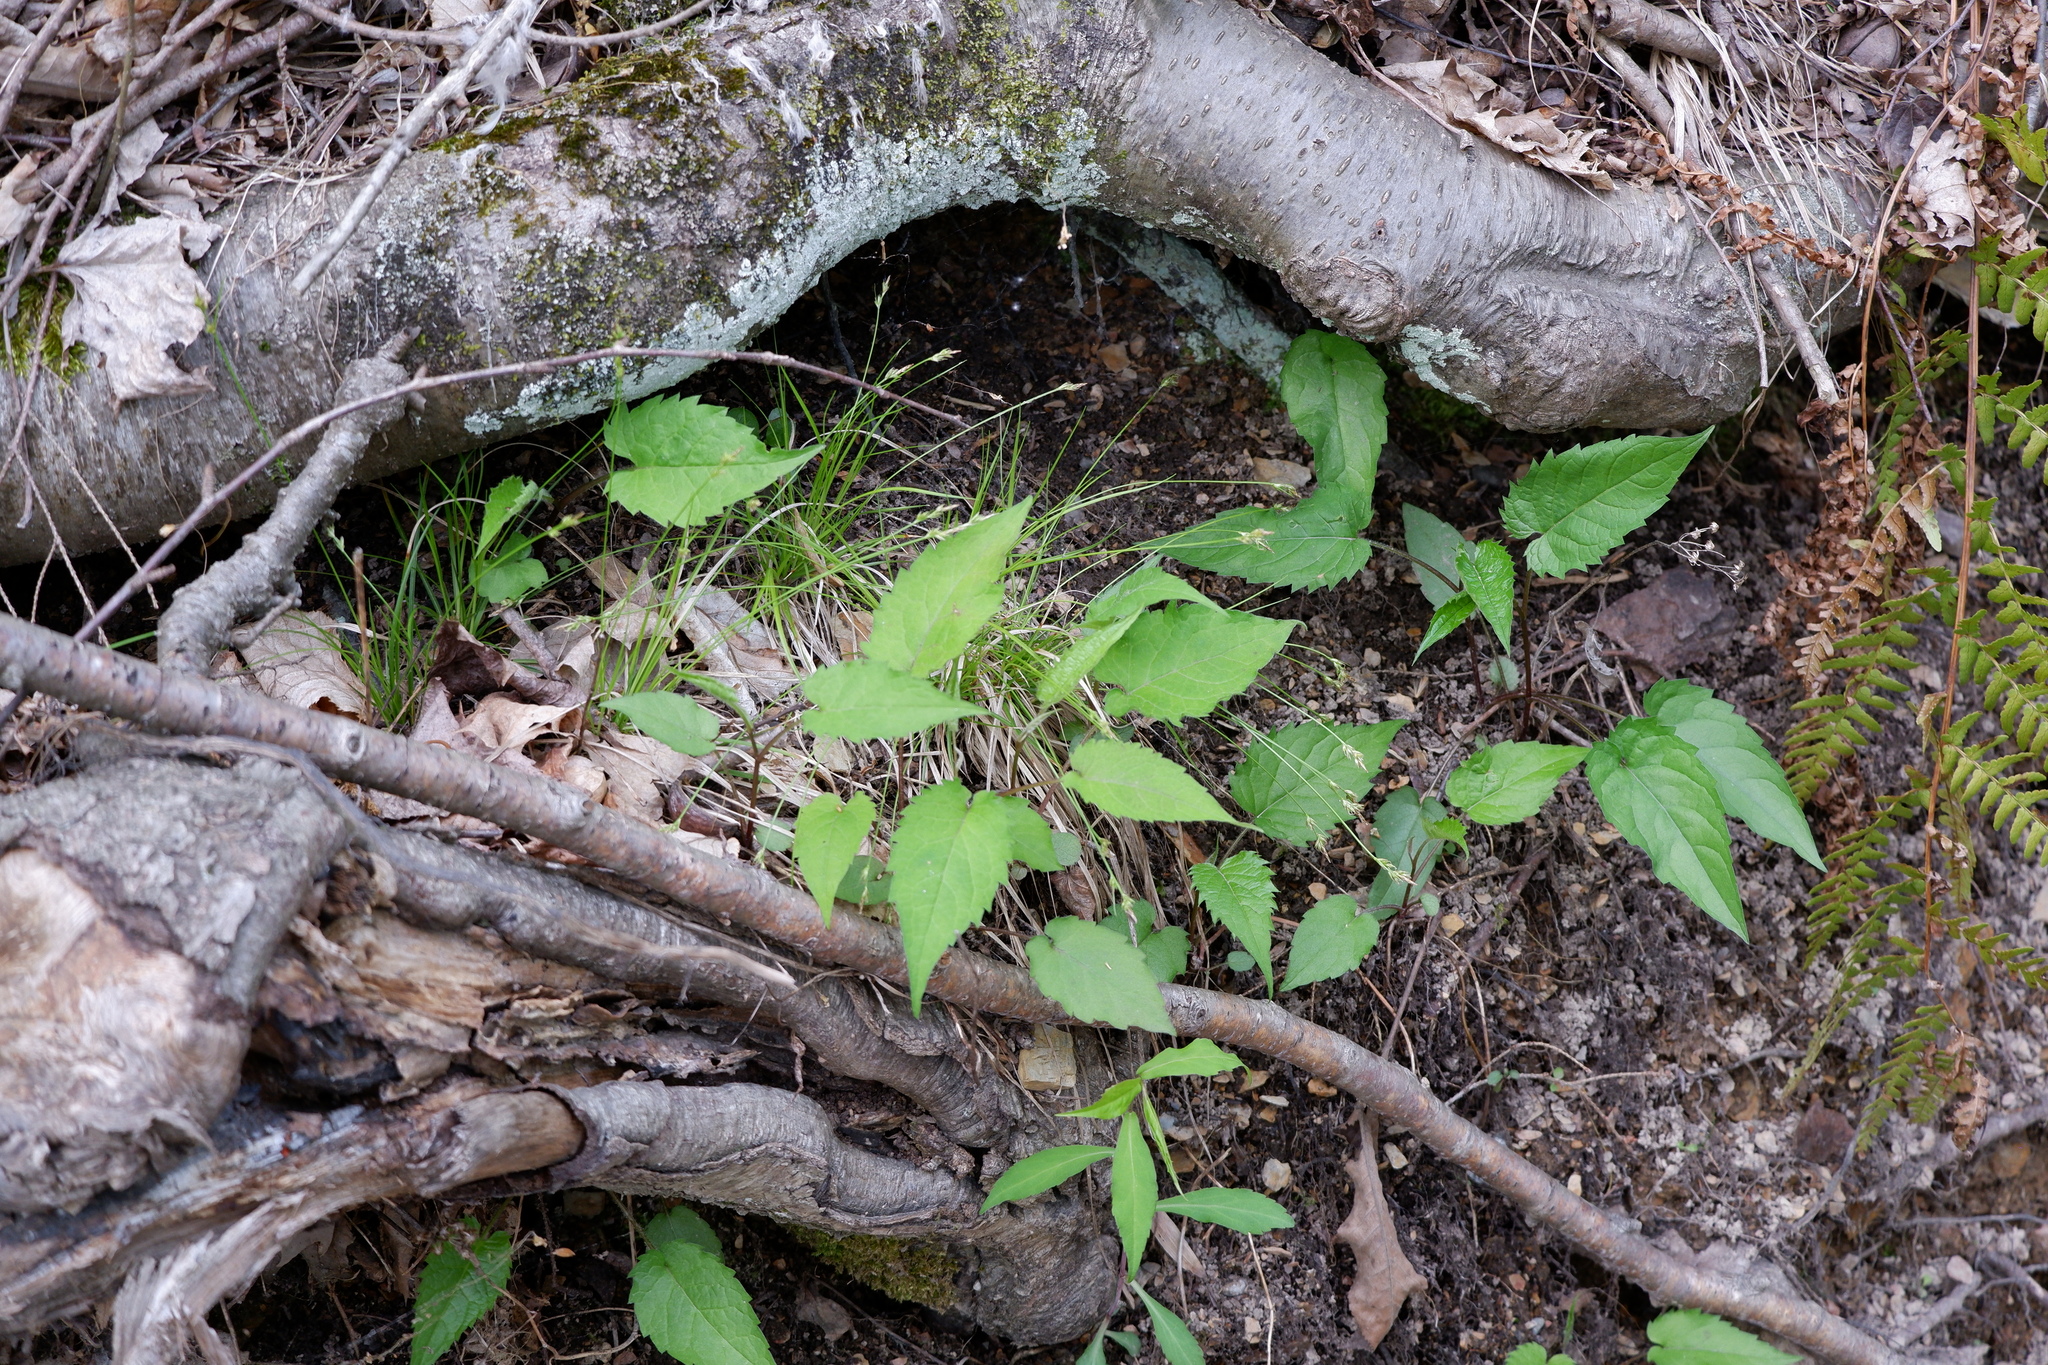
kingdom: Plantae
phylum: Tracheophyta
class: Magnoliopsida
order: Asterales
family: Asteraceae
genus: Eurybia
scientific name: Eurybia divaricata
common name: White wood aster
